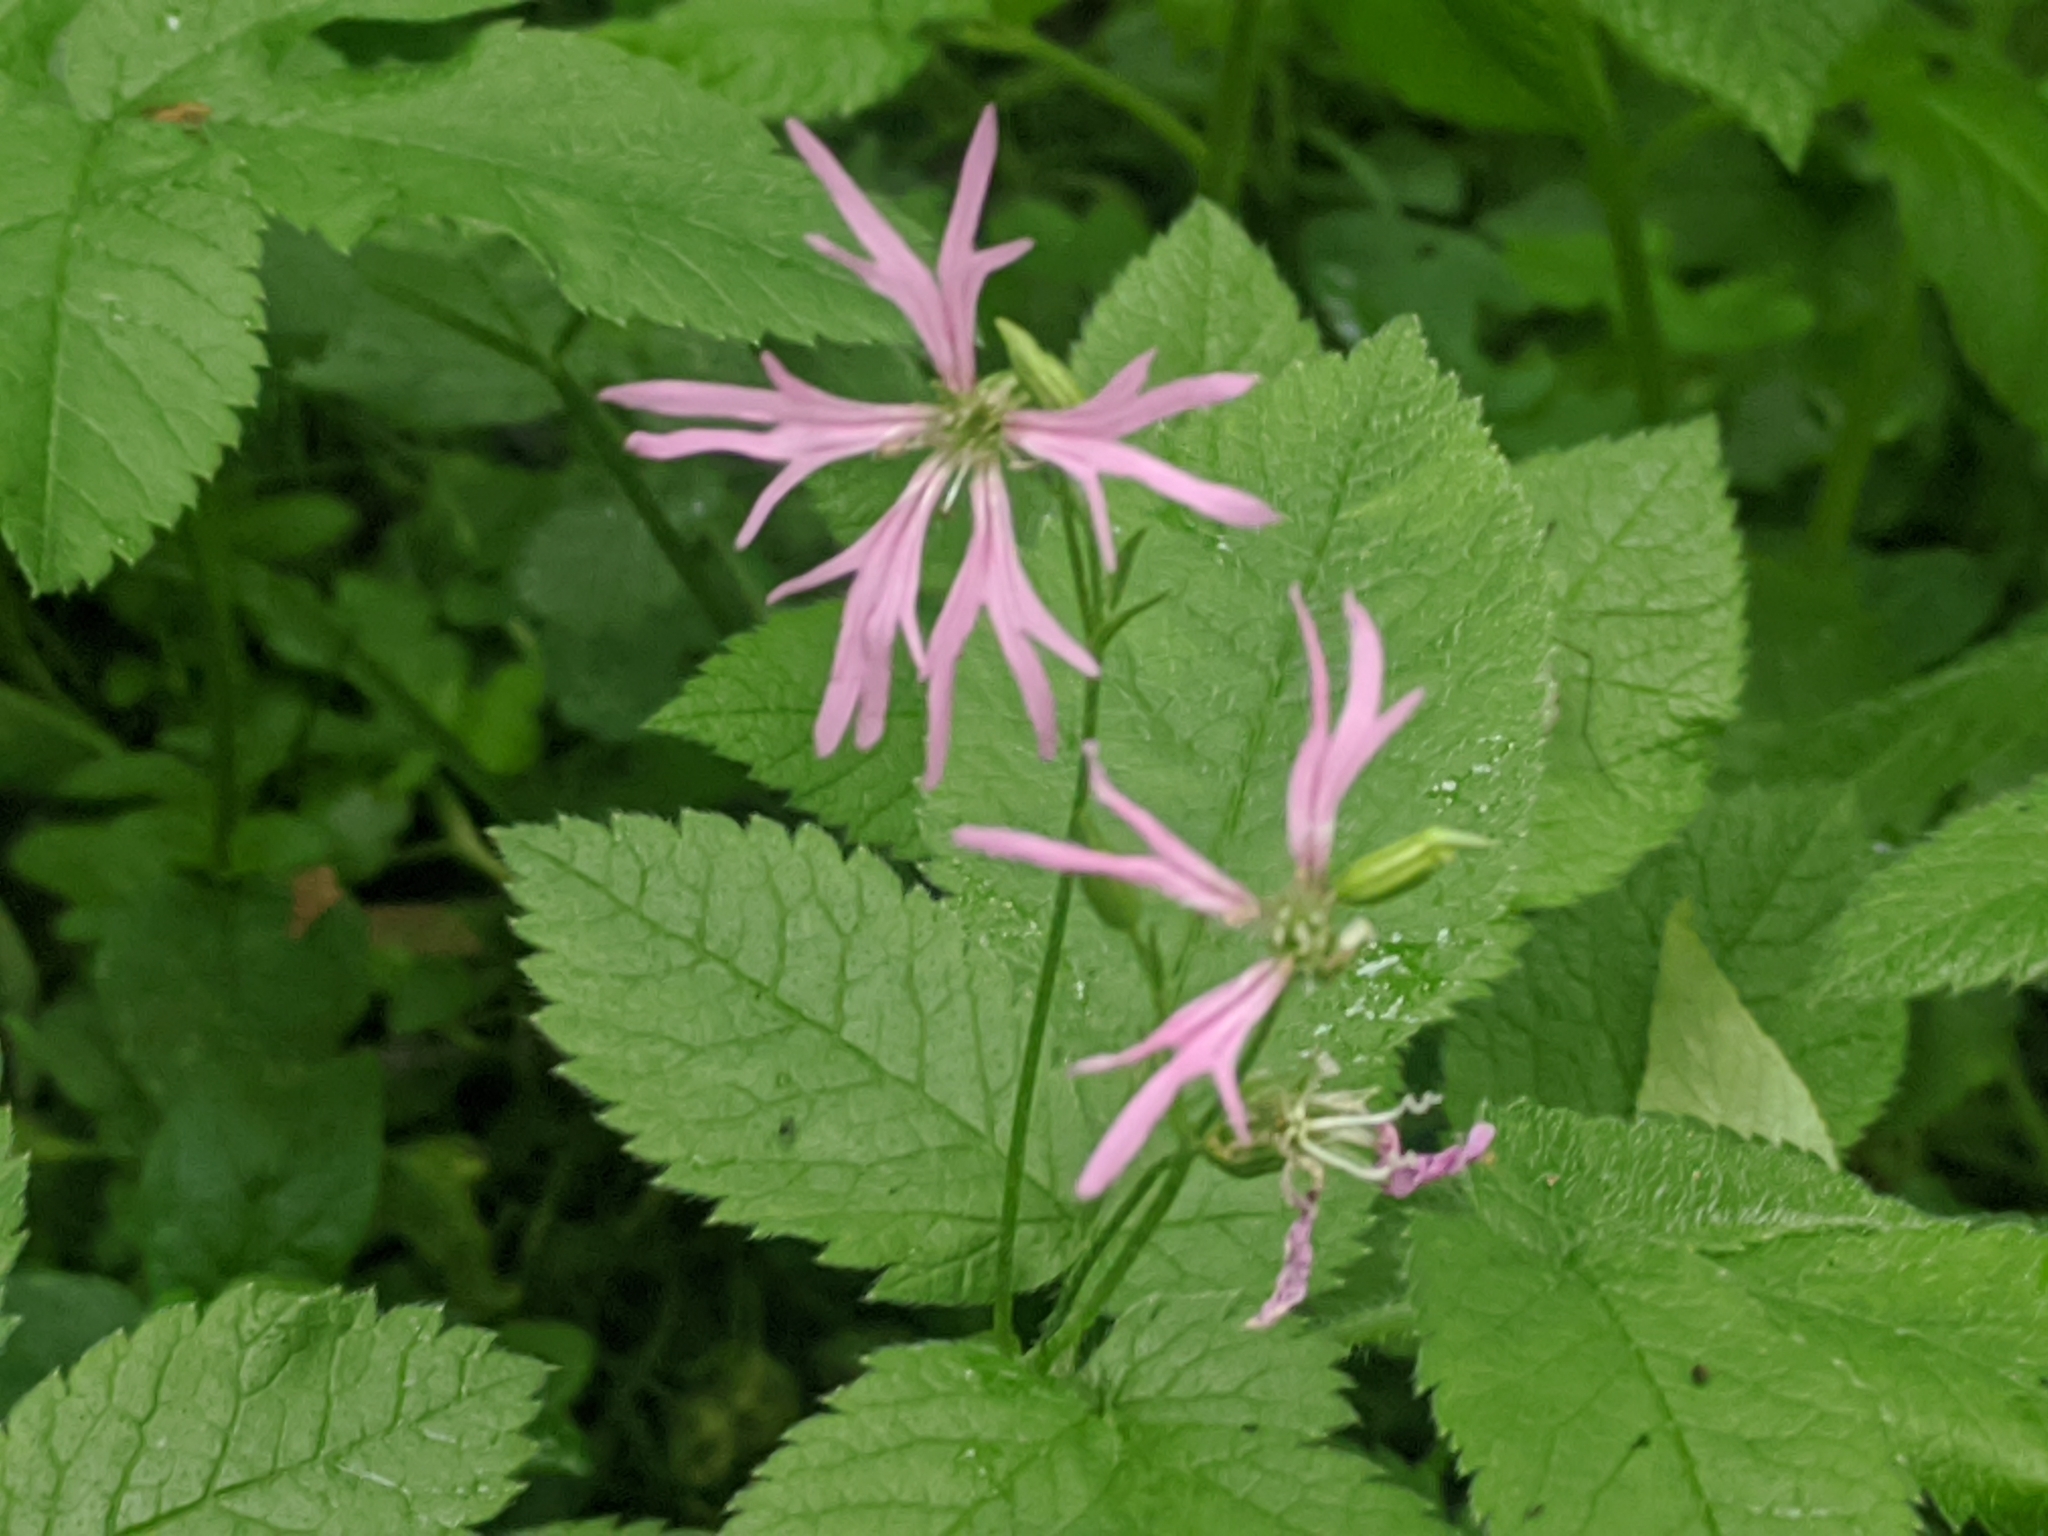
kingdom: Plantae
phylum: Tracheophyta
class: Magnoliopsida
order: Caryophyllales
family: Caryophyllaceae
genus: Silene
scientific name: Silene flos-cuculi
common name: Ragged-robin
